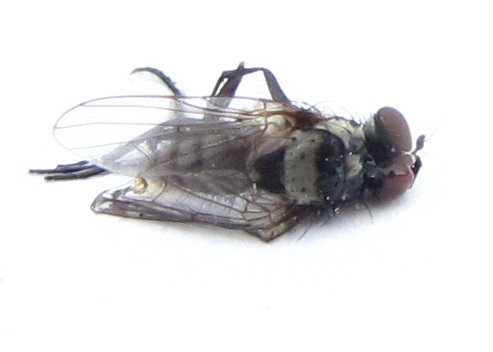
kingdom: Animalia
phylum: Arthropoda
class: Insecta
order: Diptera
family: Anthomyiidae
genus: Anthomyia
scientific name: Anthomyia oculifera
